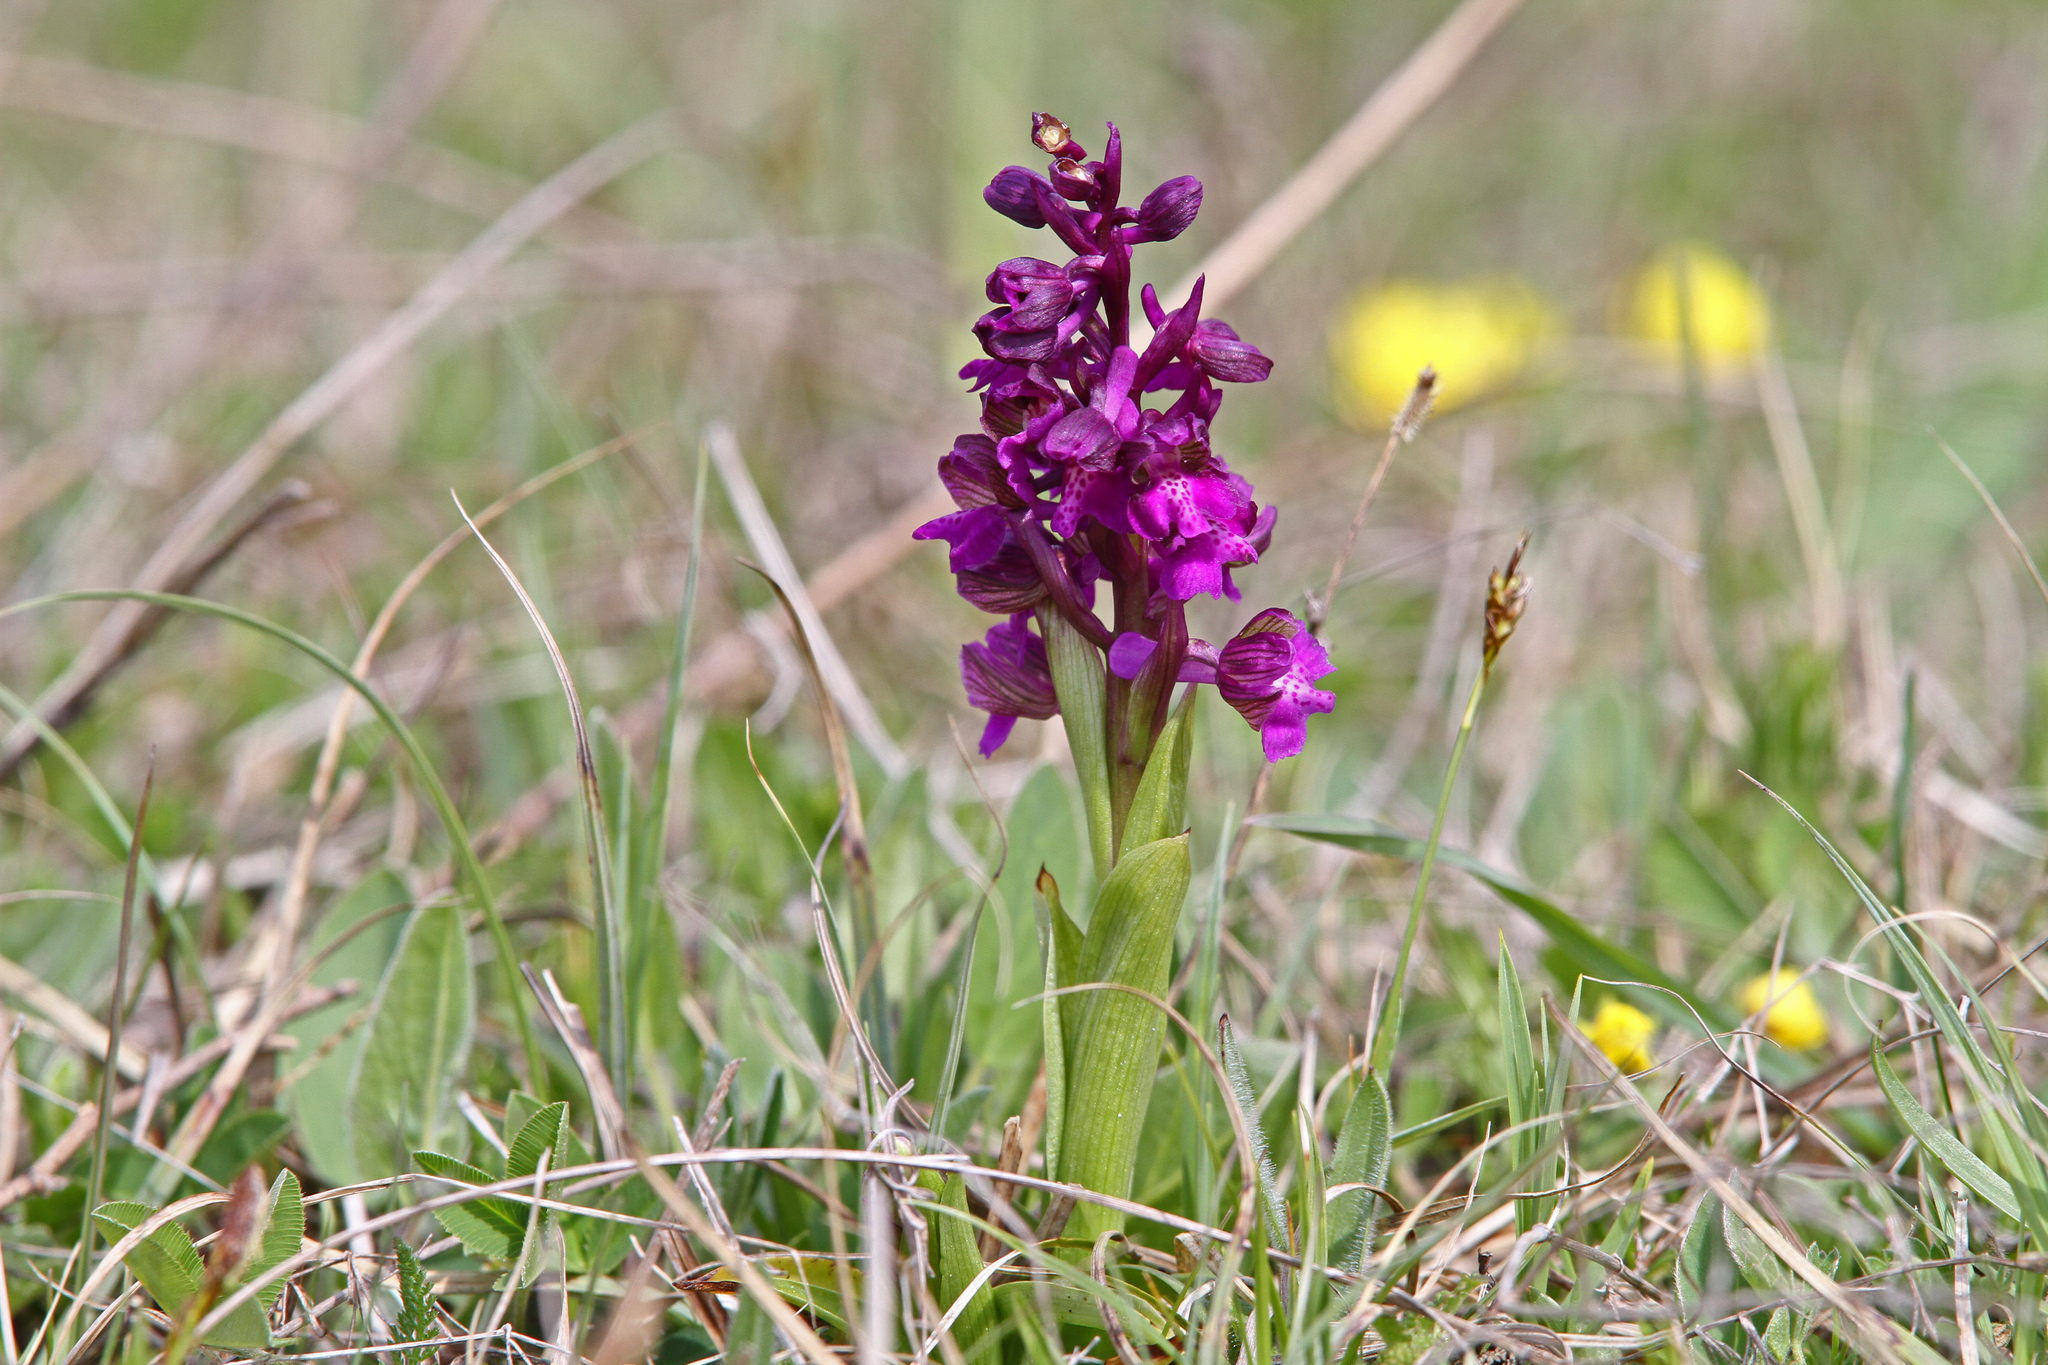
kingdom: Plantae
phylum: Tracheophyta
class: Liliopsida
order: Asparagales
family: Orchidaceae
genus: Anacamptis
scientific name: Anacamptis morio
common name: Green-winged orchid
